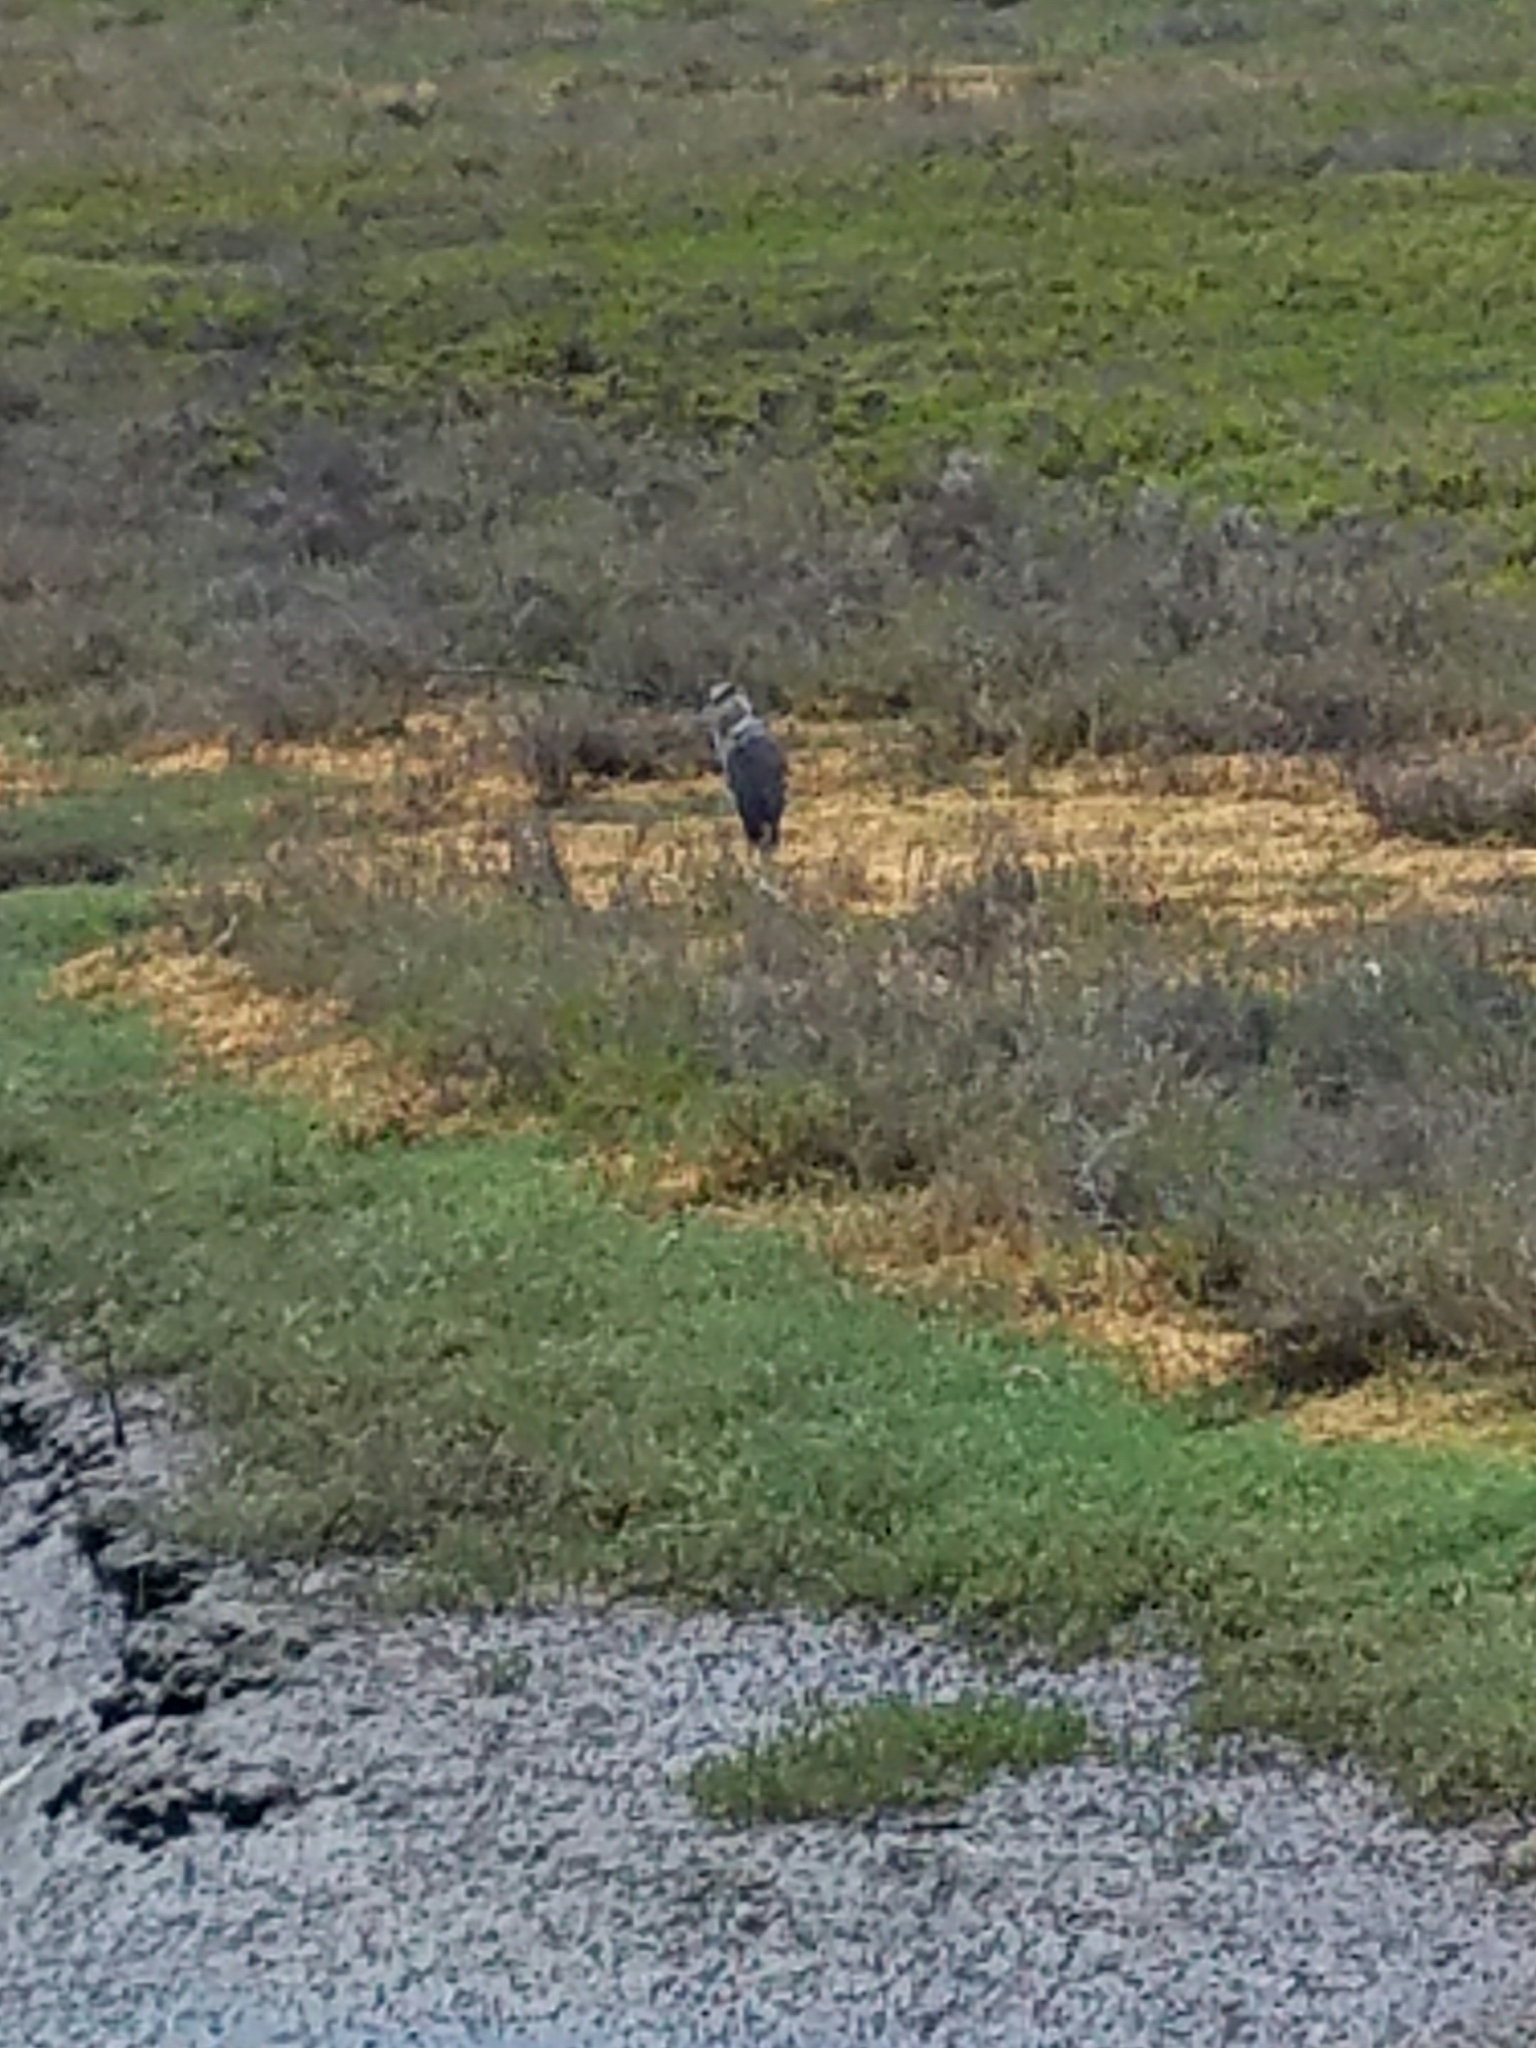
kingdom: Animalia
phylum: Chordata
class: Aves
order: Pelecaniformes
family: Ardeidae
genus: Ardea
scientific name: Ardea herodias
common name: Great blue heron
